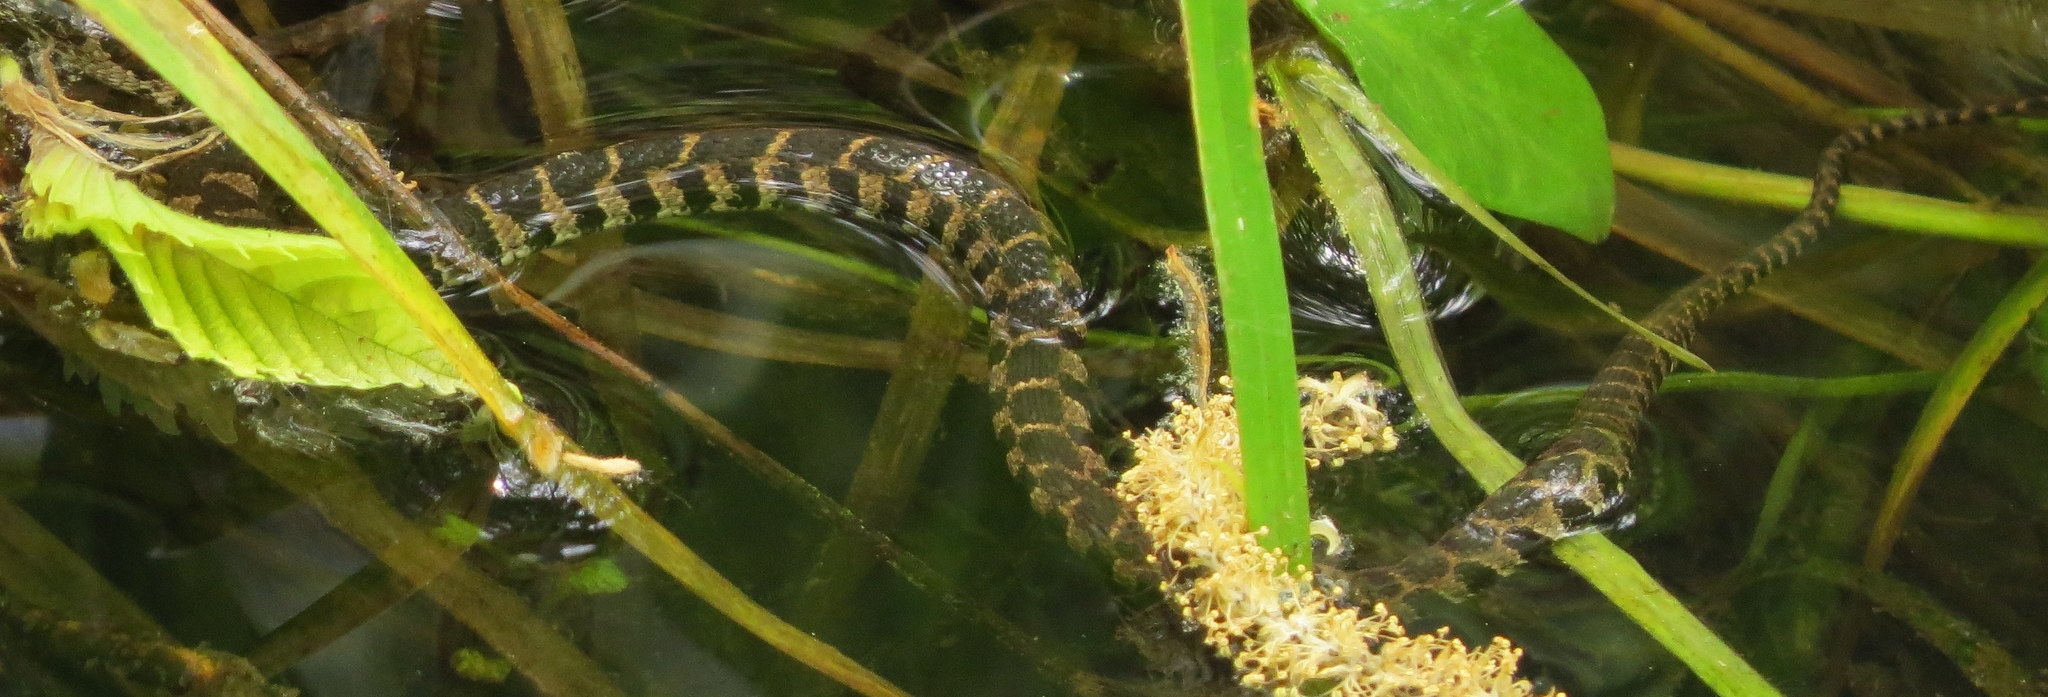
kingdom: Animalia
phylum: Chordata
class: Squamata
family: Colubridae
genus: Nerodia
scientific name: Nerodia sipedon
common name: Northern water snake
